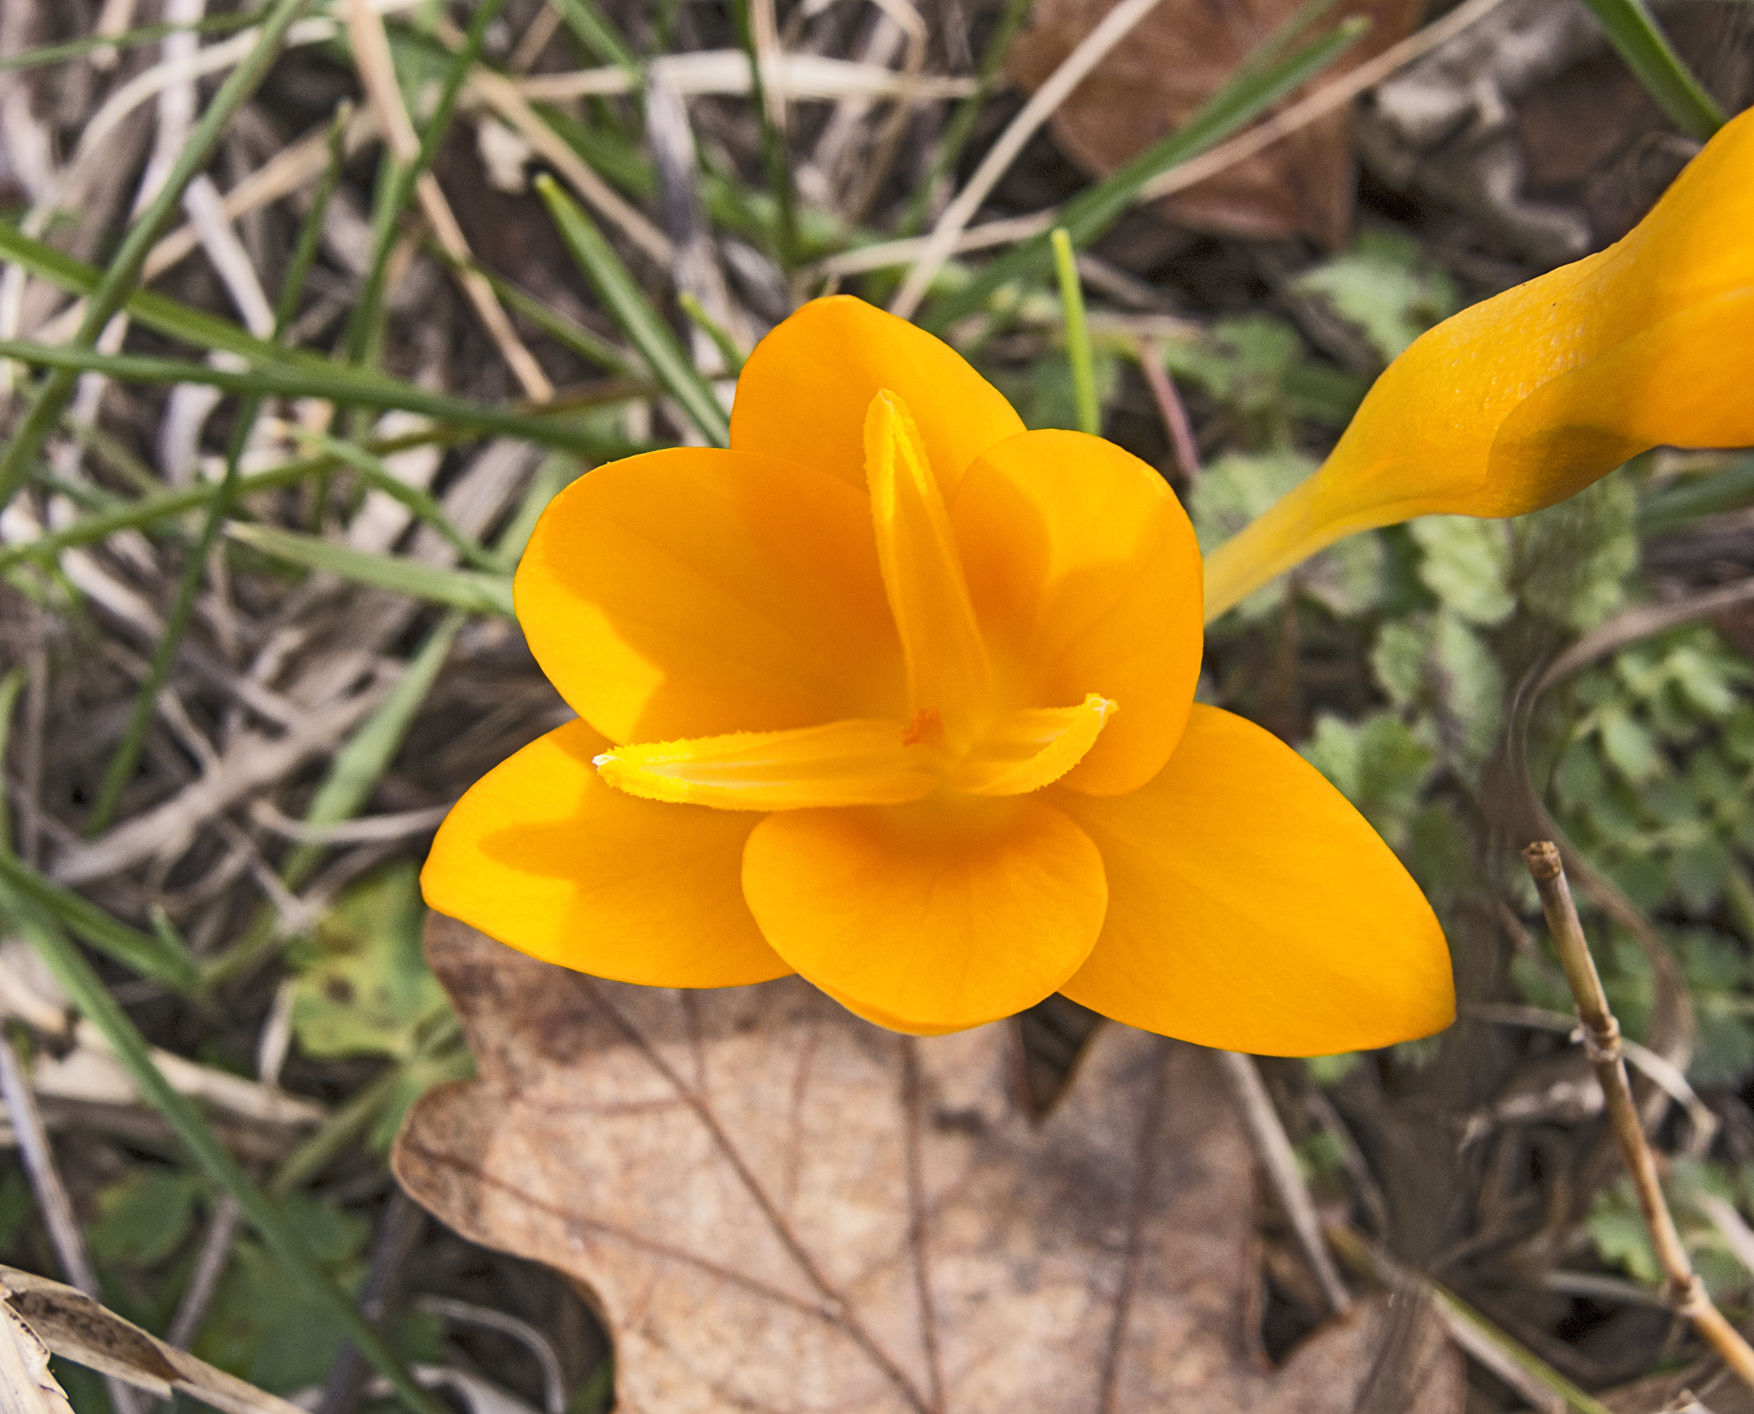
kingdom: Plantae
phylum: Tracheophyta
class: Liliopsida
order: Asparagales
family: Iridaceae
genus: Crocus
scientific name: Crocus flavus
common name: Yellow crocus
